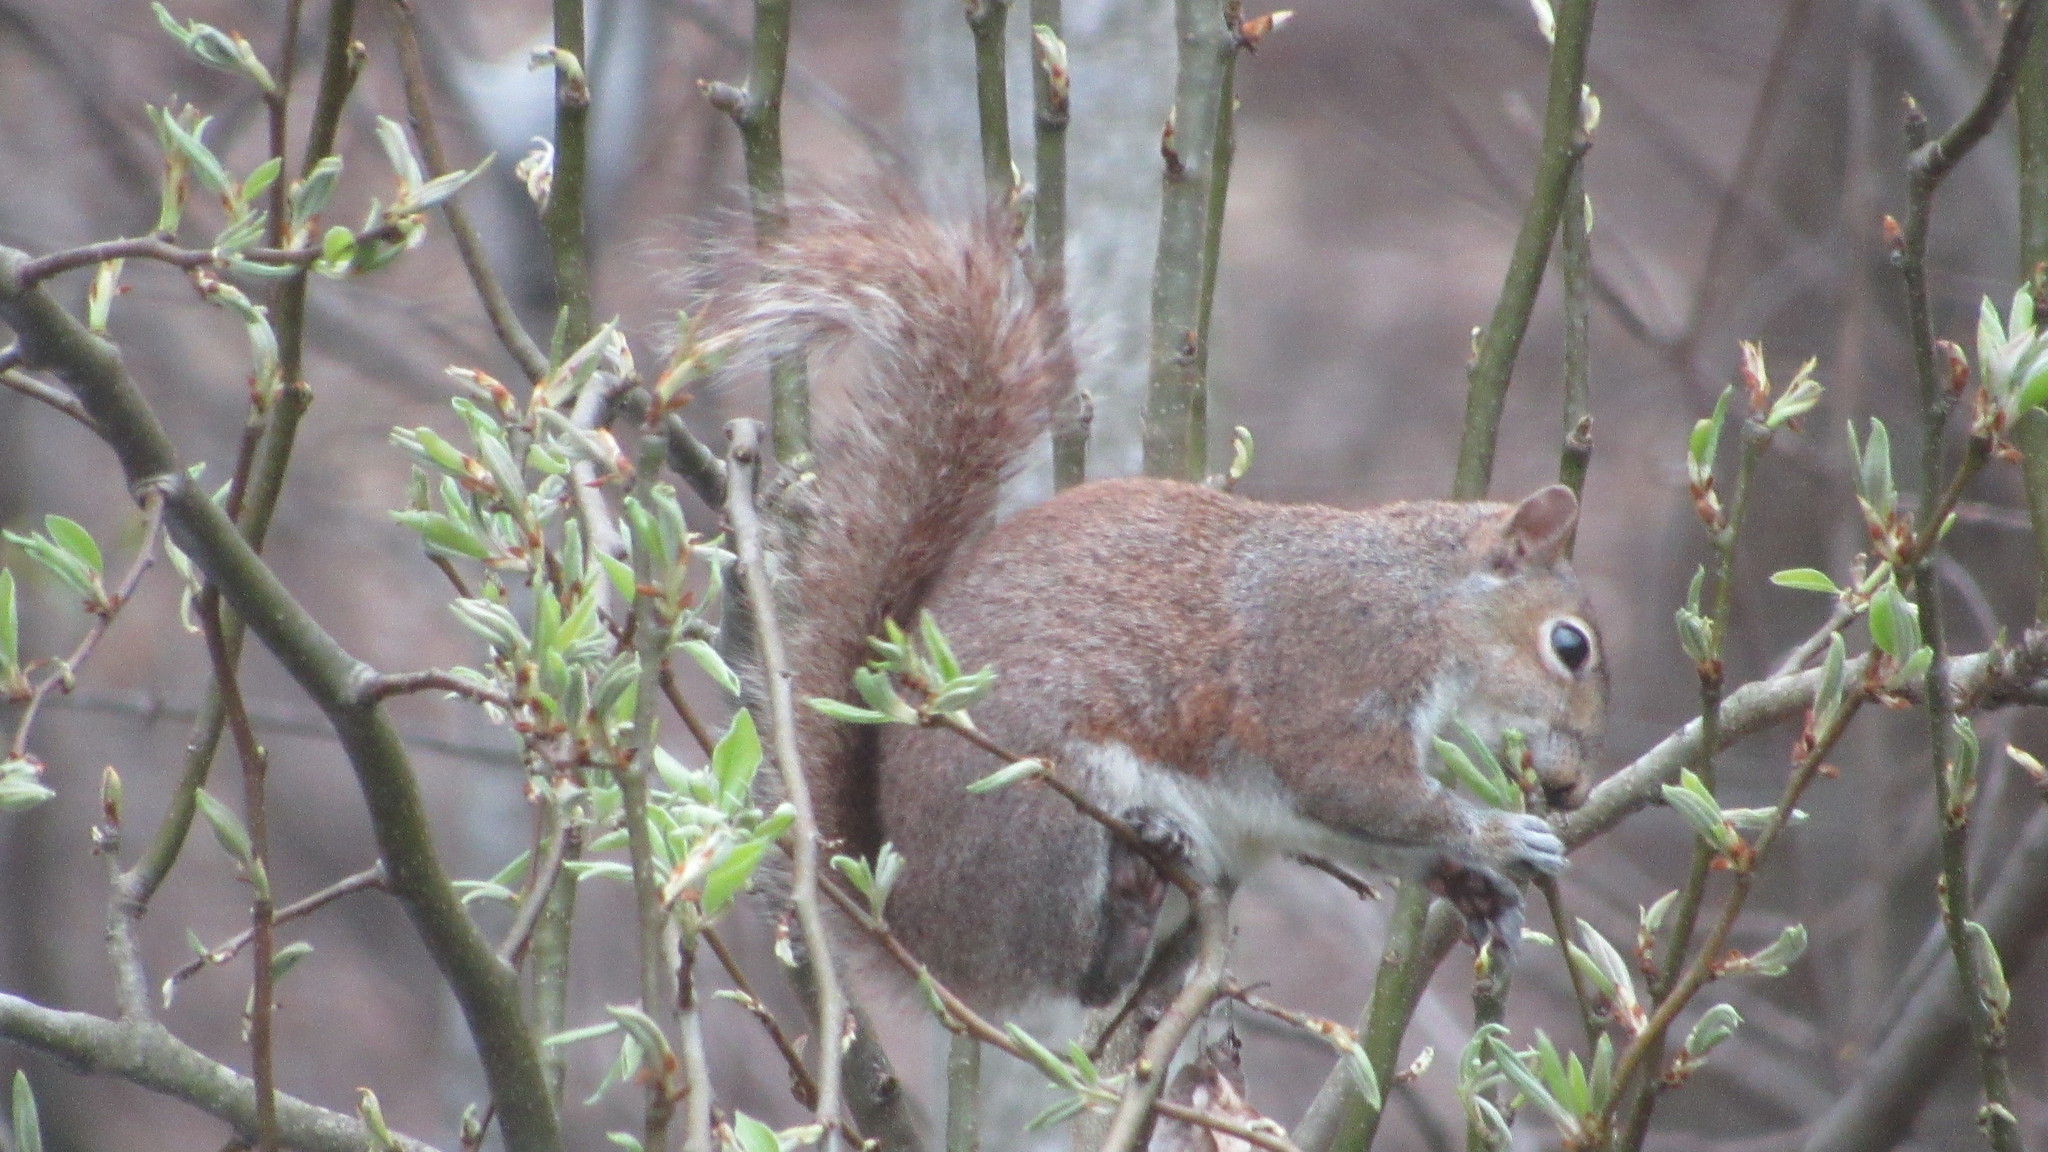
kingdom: Animalia
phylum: Chordata
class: Mammalia
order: Rodentia
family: Sciuridae
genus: Sciurus
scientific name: Sciurus carolinensis
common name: Eastern gray squirrel
